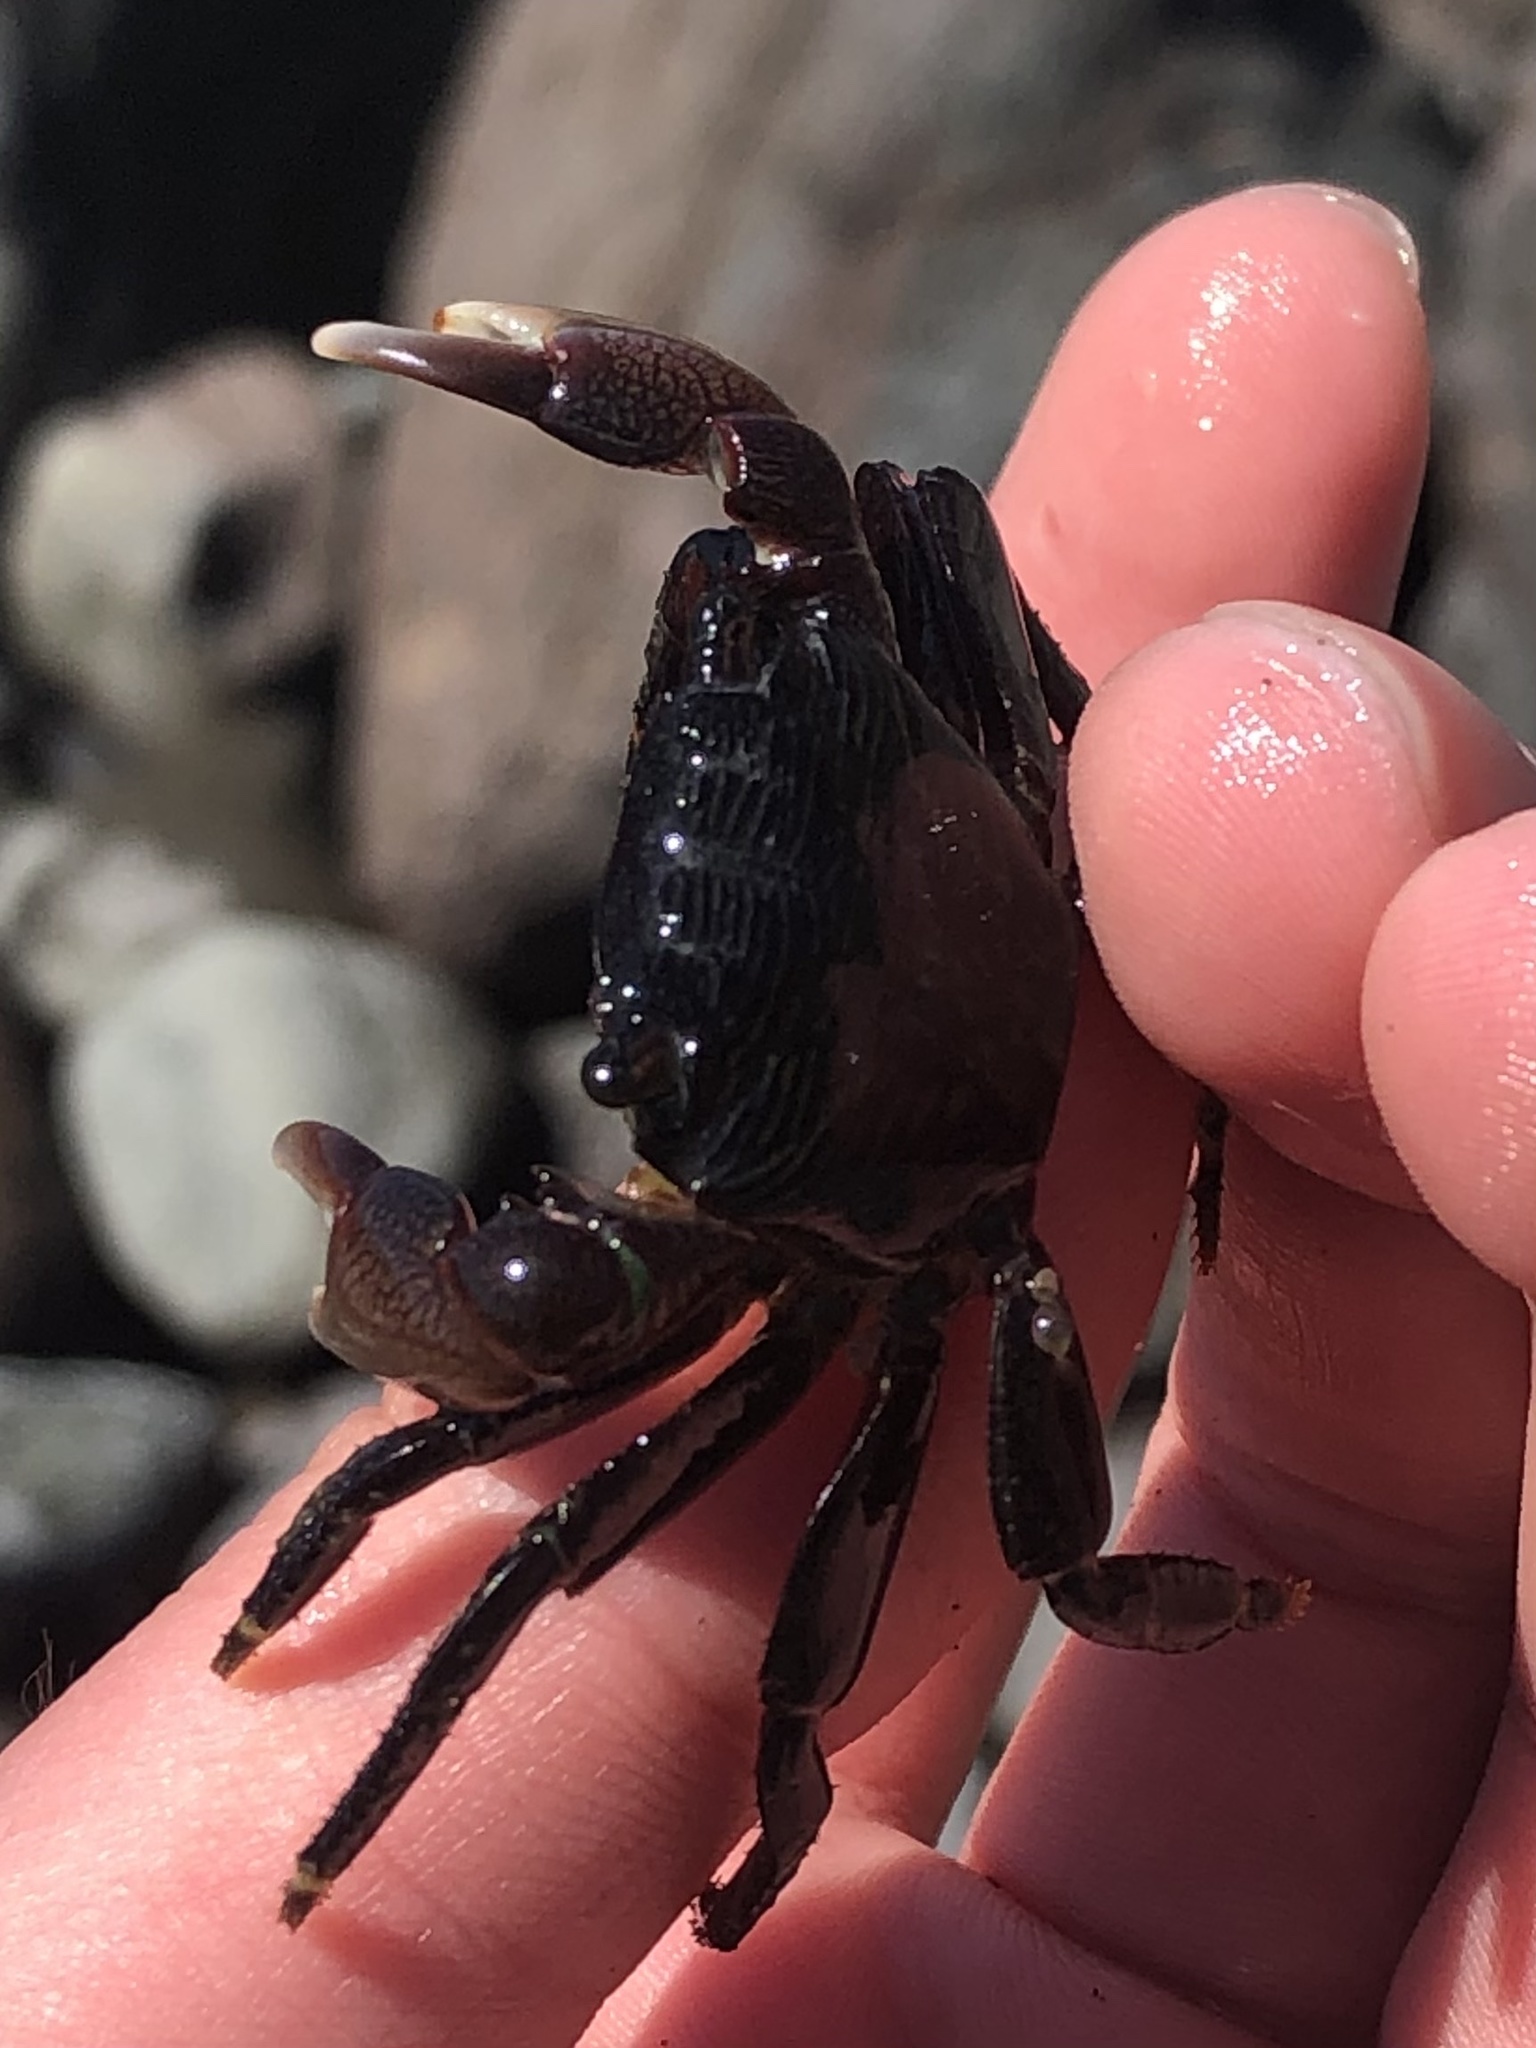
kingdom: Animalia
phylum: Arthropoda
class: Malacostraca
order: Decapoda
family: Grapsidae
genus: Pachygrapsus
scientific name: Pachygrapsus crassipes
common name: Striped shore crab
